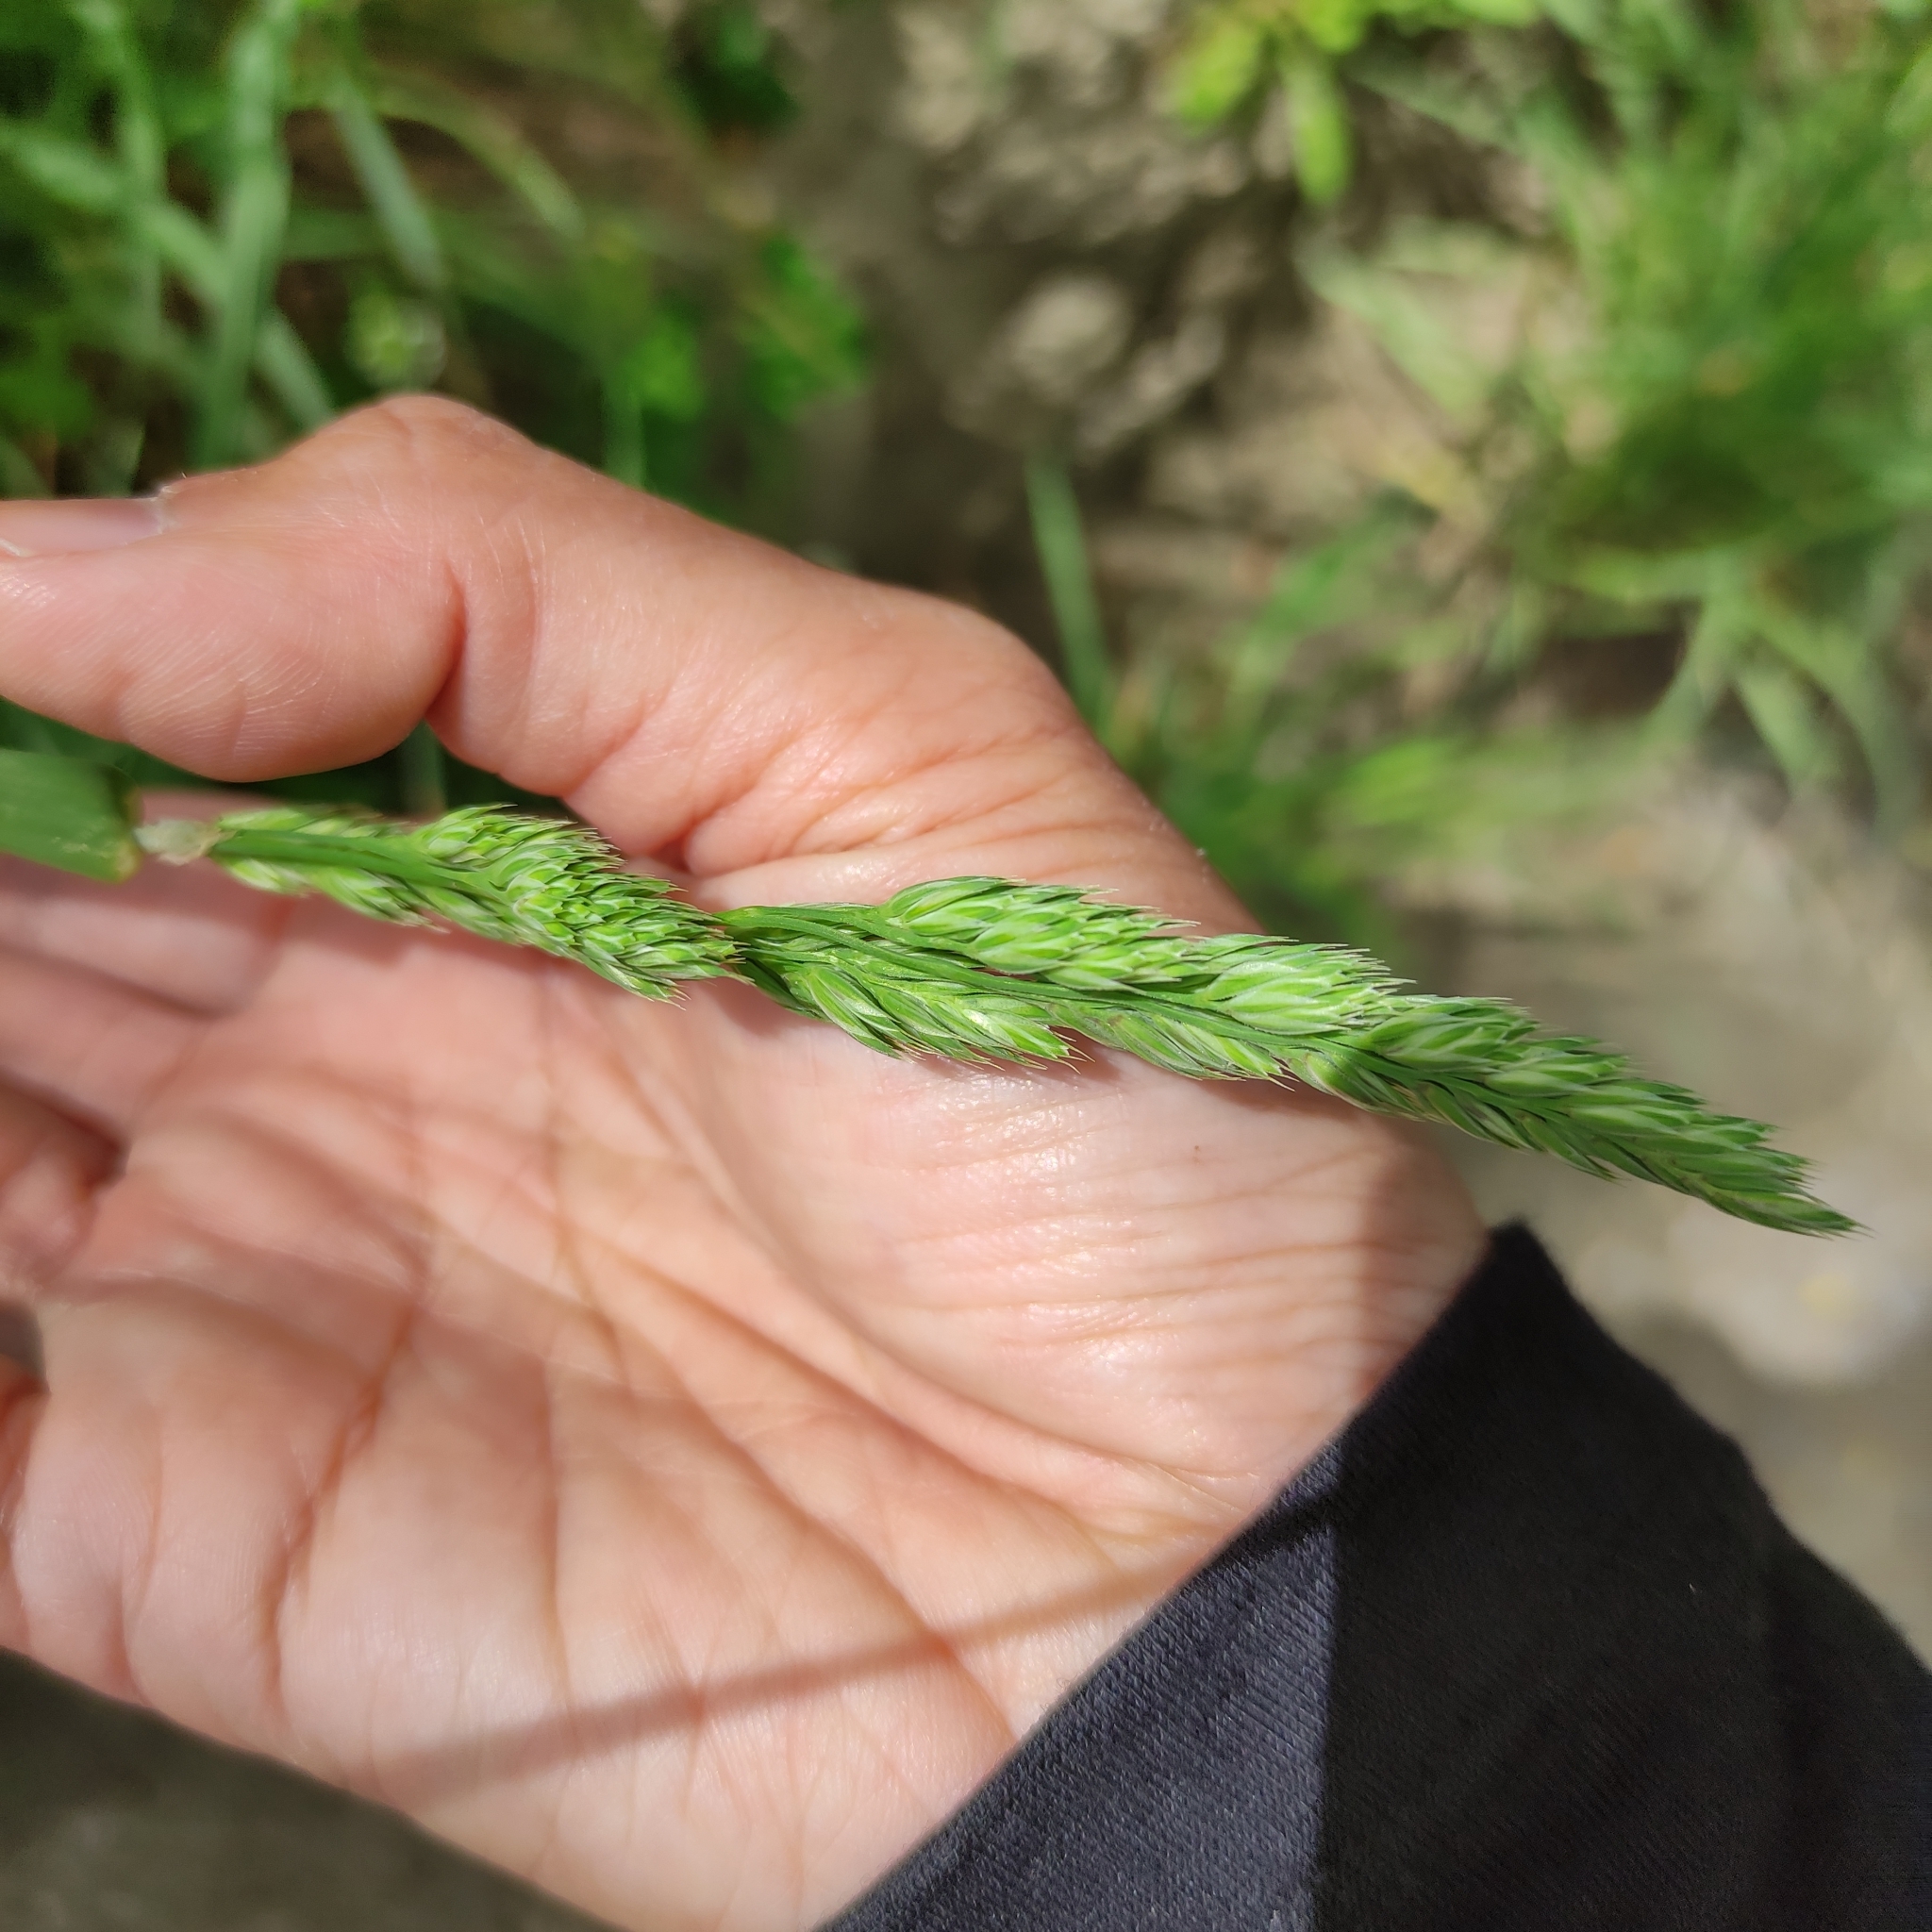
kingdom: Plantae
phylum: Tracheophyta
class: Liliopsida
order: Poales
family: Poaceae
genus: Dactylis
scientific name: Dactylis glomerata
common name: Orchardgrass
